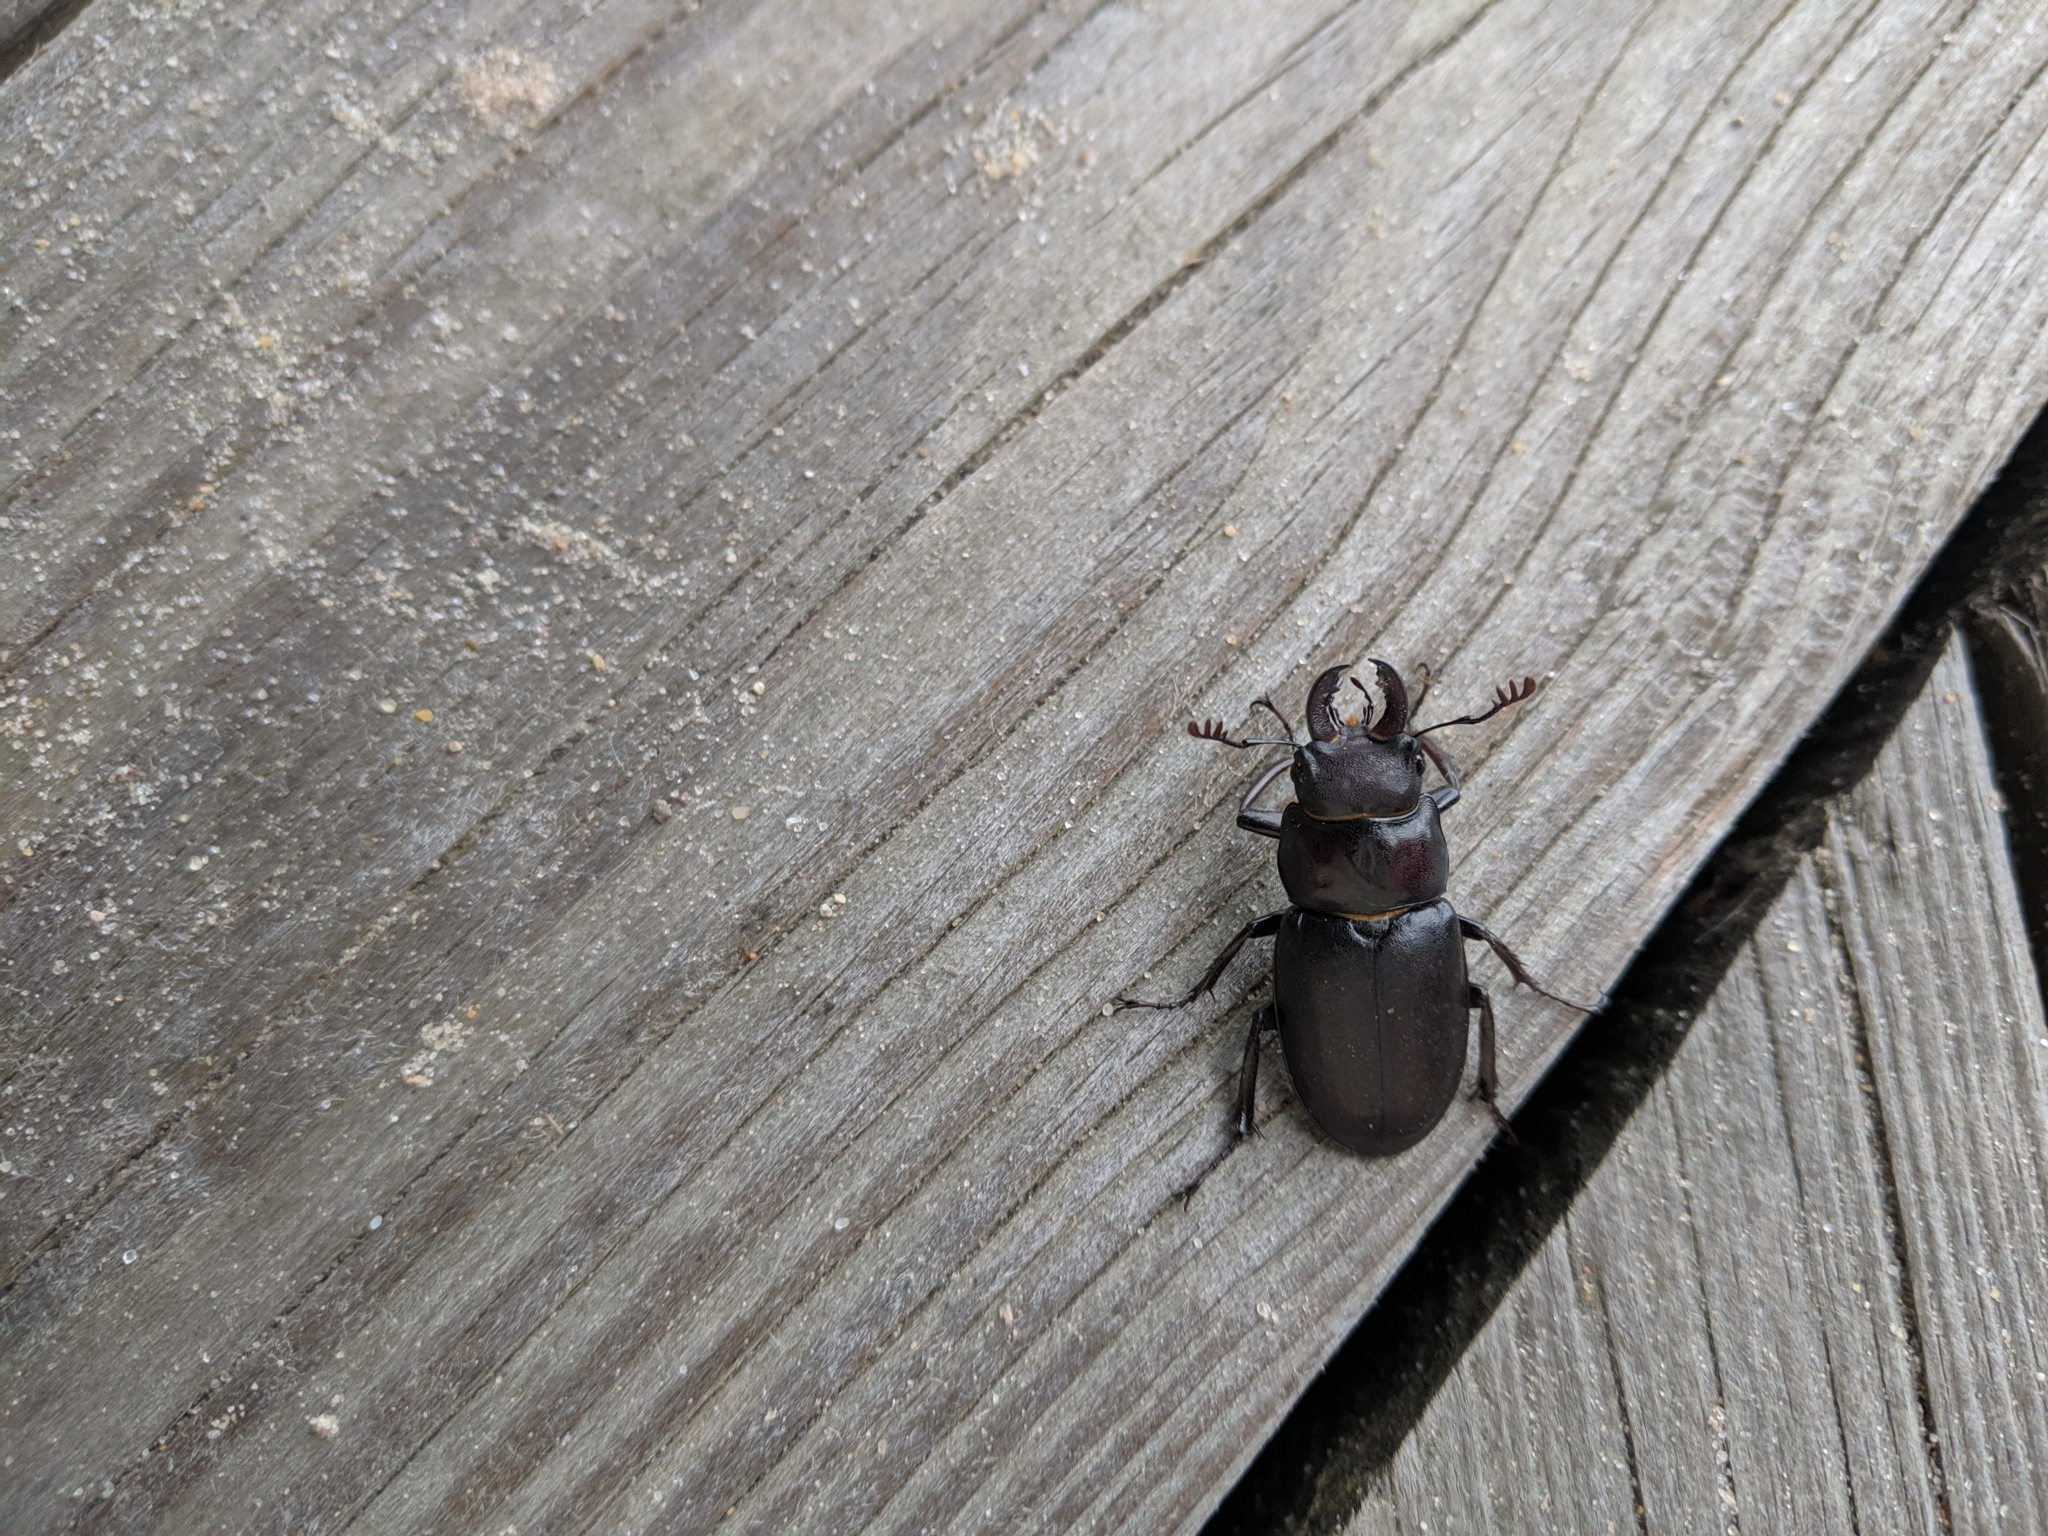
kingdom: Animalia
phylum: Arthropoda
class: Insecta
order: Coleoptera
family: Lucanidae
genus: Lucanus
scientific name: Lucanus placidus
